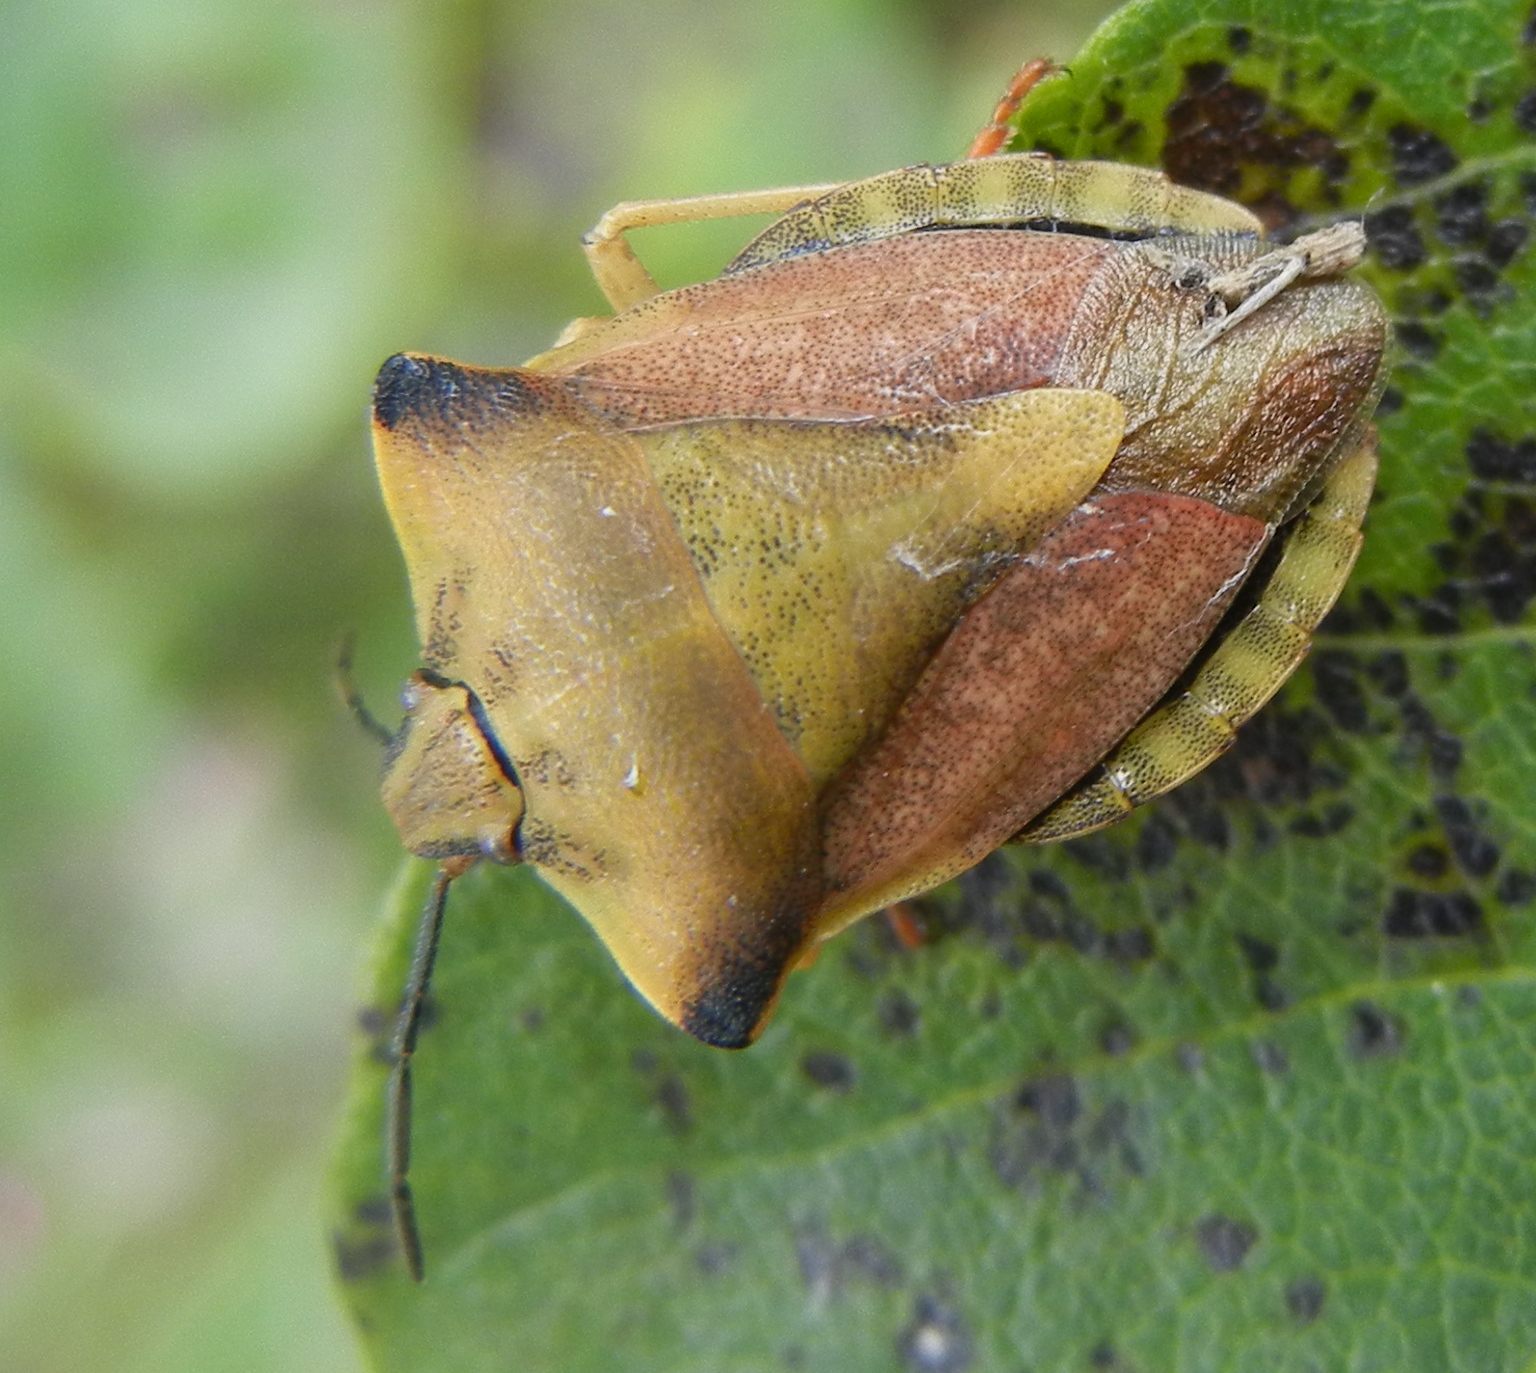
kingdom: Animalia
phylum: Arthropoda
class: Insecta
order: Hemiptera
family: Pentatomidae
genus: Carpocoris
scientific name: Carpocoris fuscispinus
